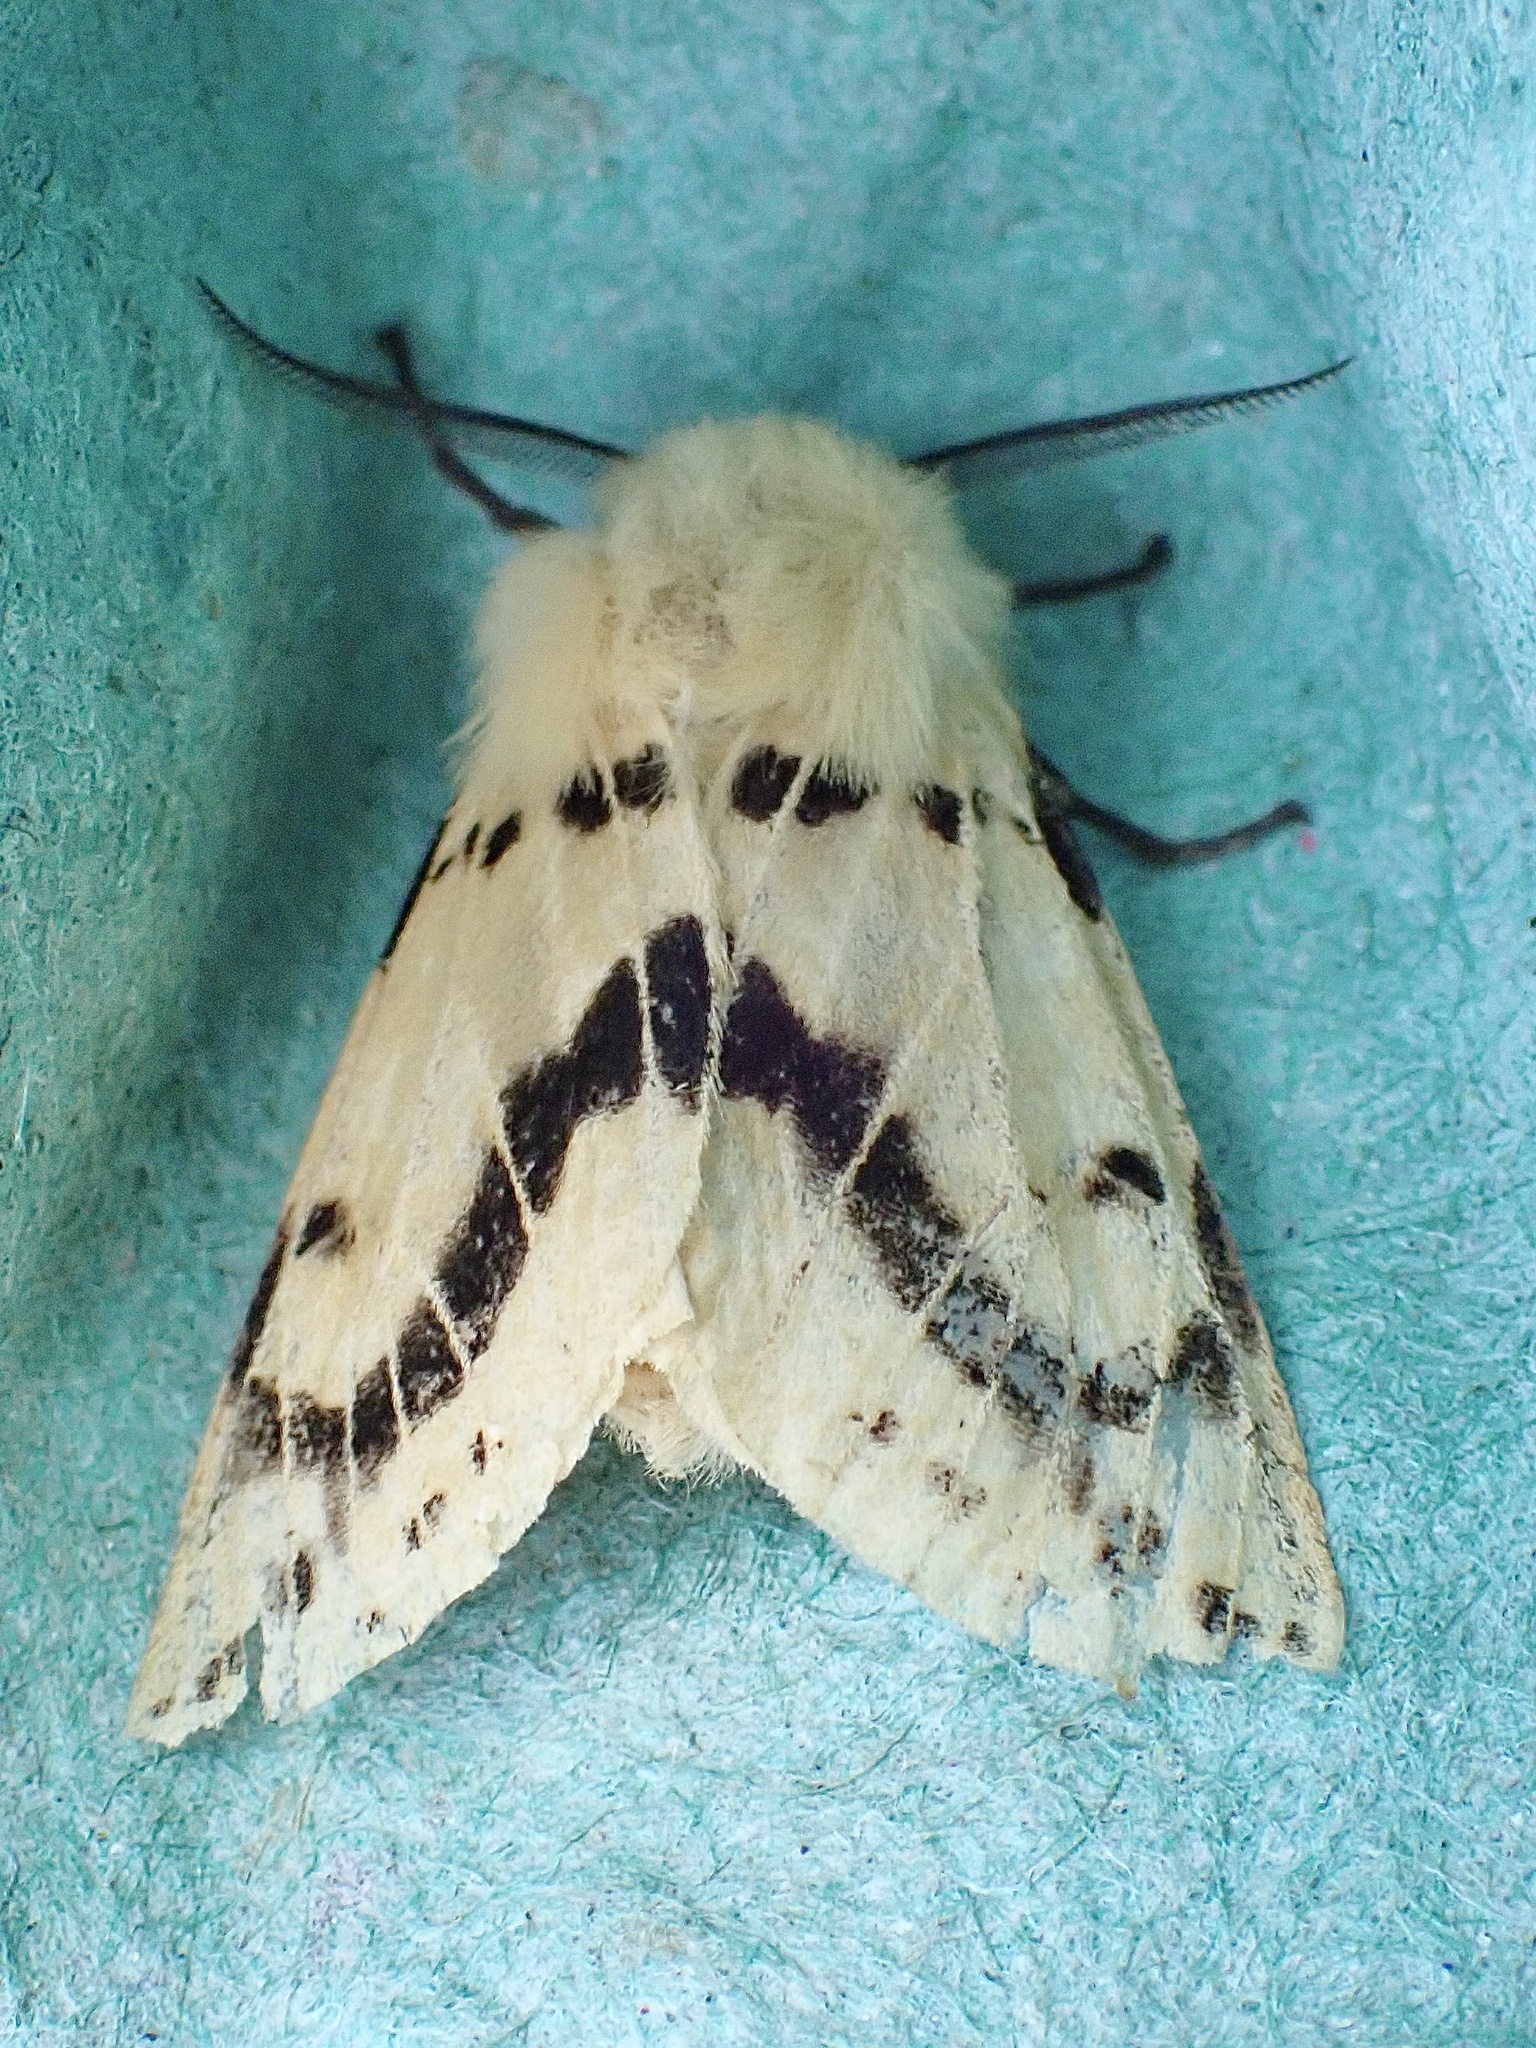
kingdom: Animalia
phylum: Arthropoda
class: Insecta
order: Lepidoptera
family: Erebidae
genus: Spilarctia
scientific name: Spilarctia lutea
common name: Buff ermine
